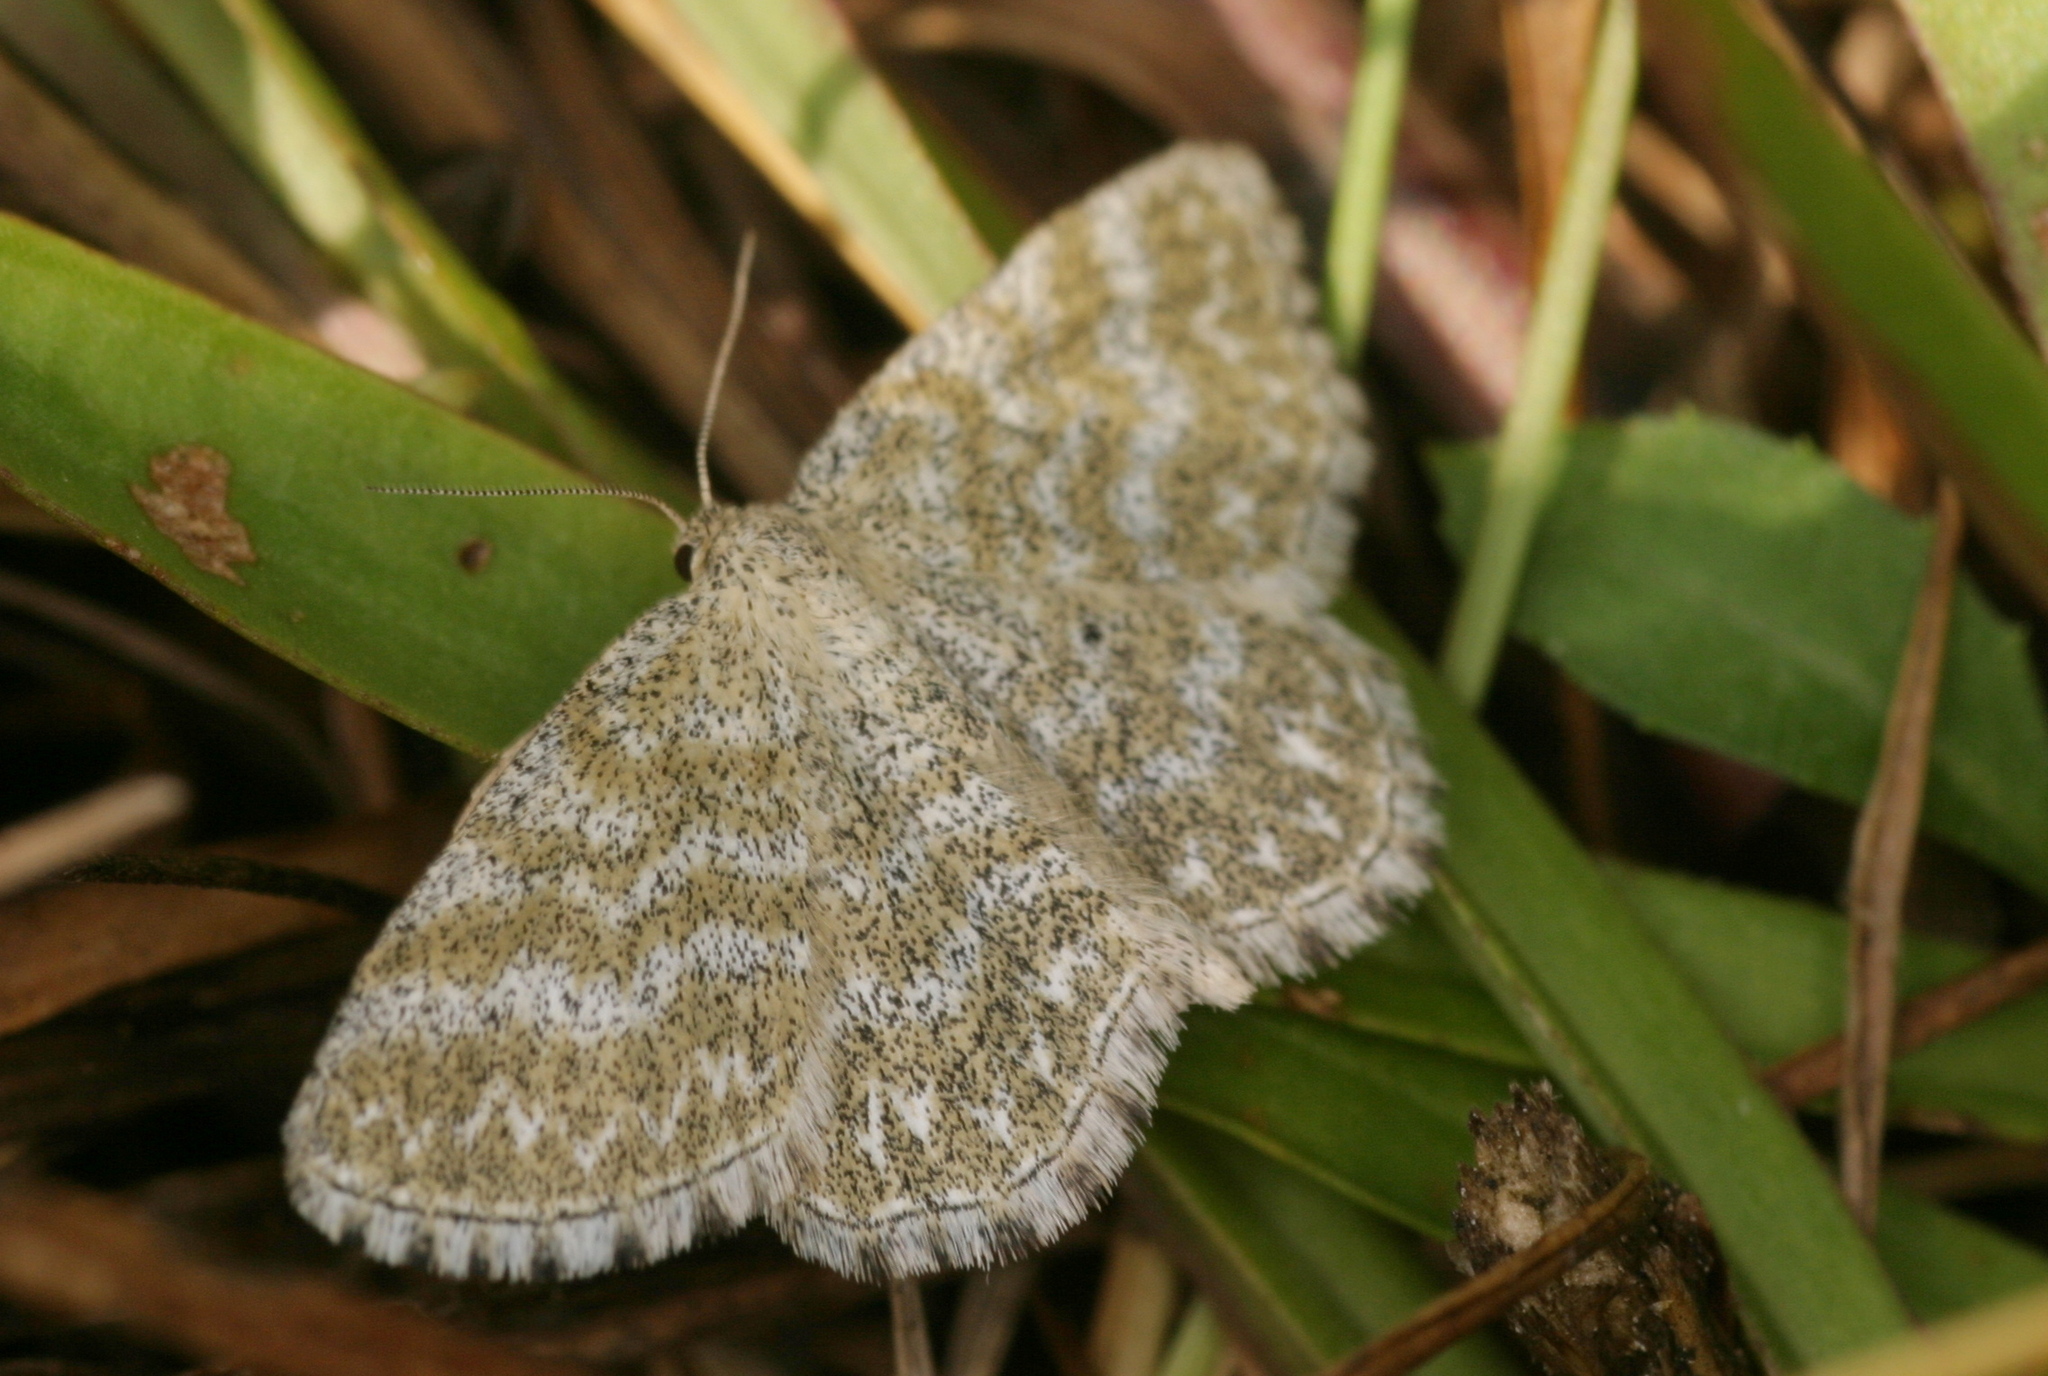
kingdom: Animalia
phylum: Arthropoda
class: Insecta
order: Lepidoptera
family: Geometridae
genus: Scopula
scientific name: Scopula immorata
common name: Lewes wave
